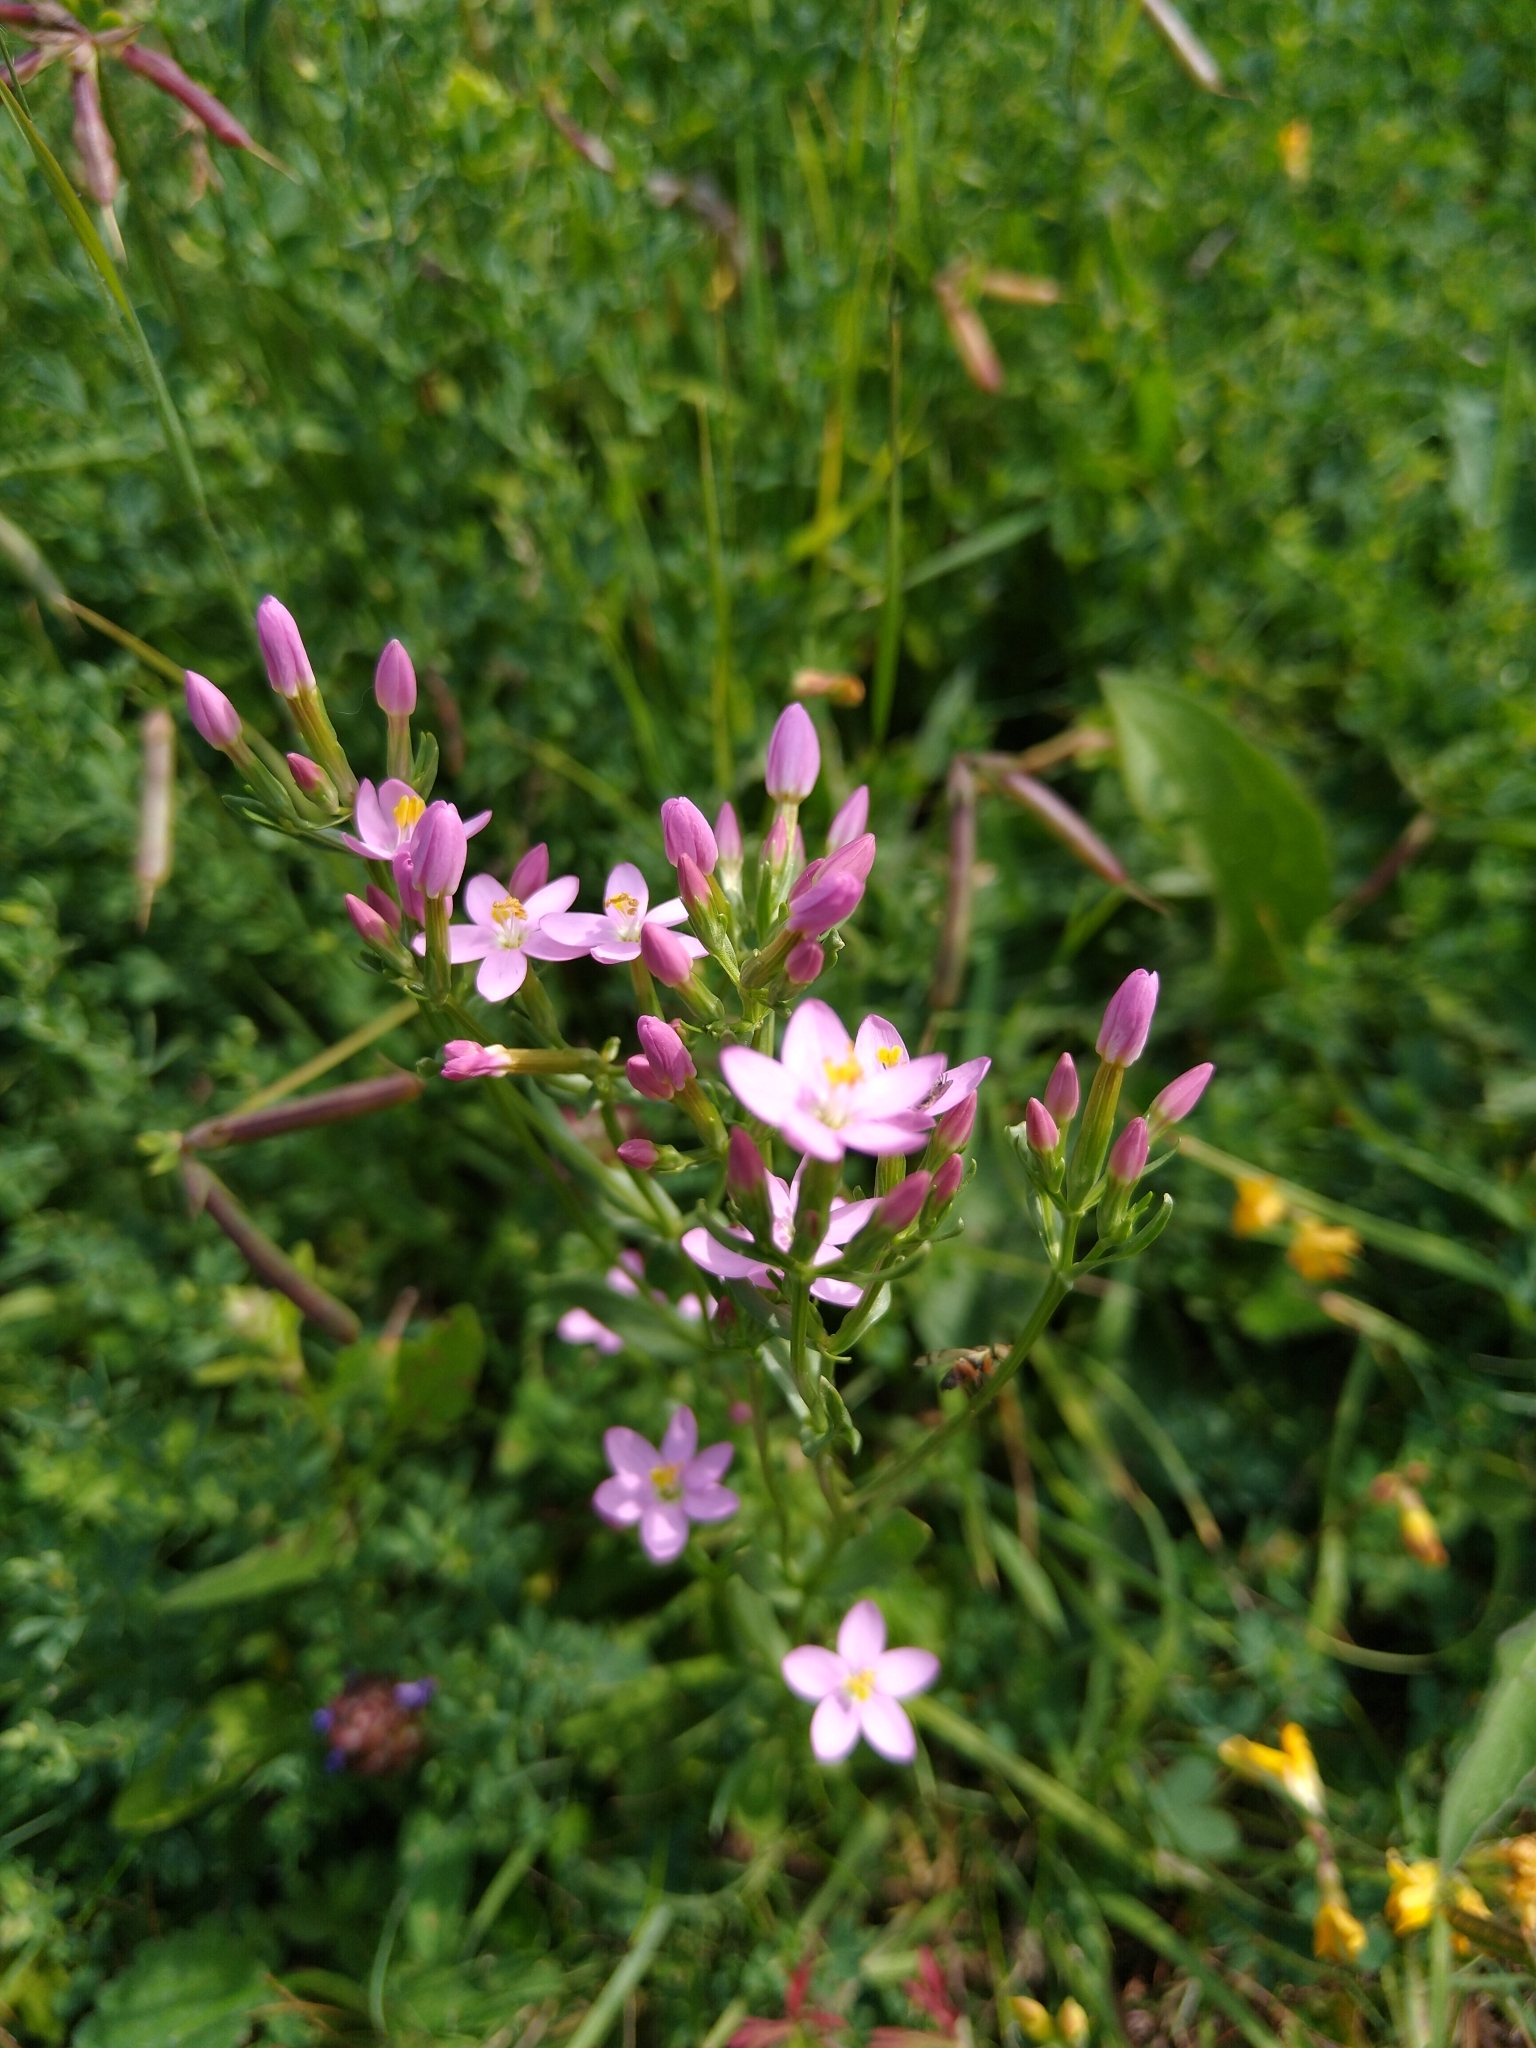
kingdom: Plantae
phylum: Tracheophyta
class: Magnoliopsida
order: Gentianales
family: Gentianaceae
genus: Centaurium
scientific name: Centaurium erythraea
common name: Common centaury
